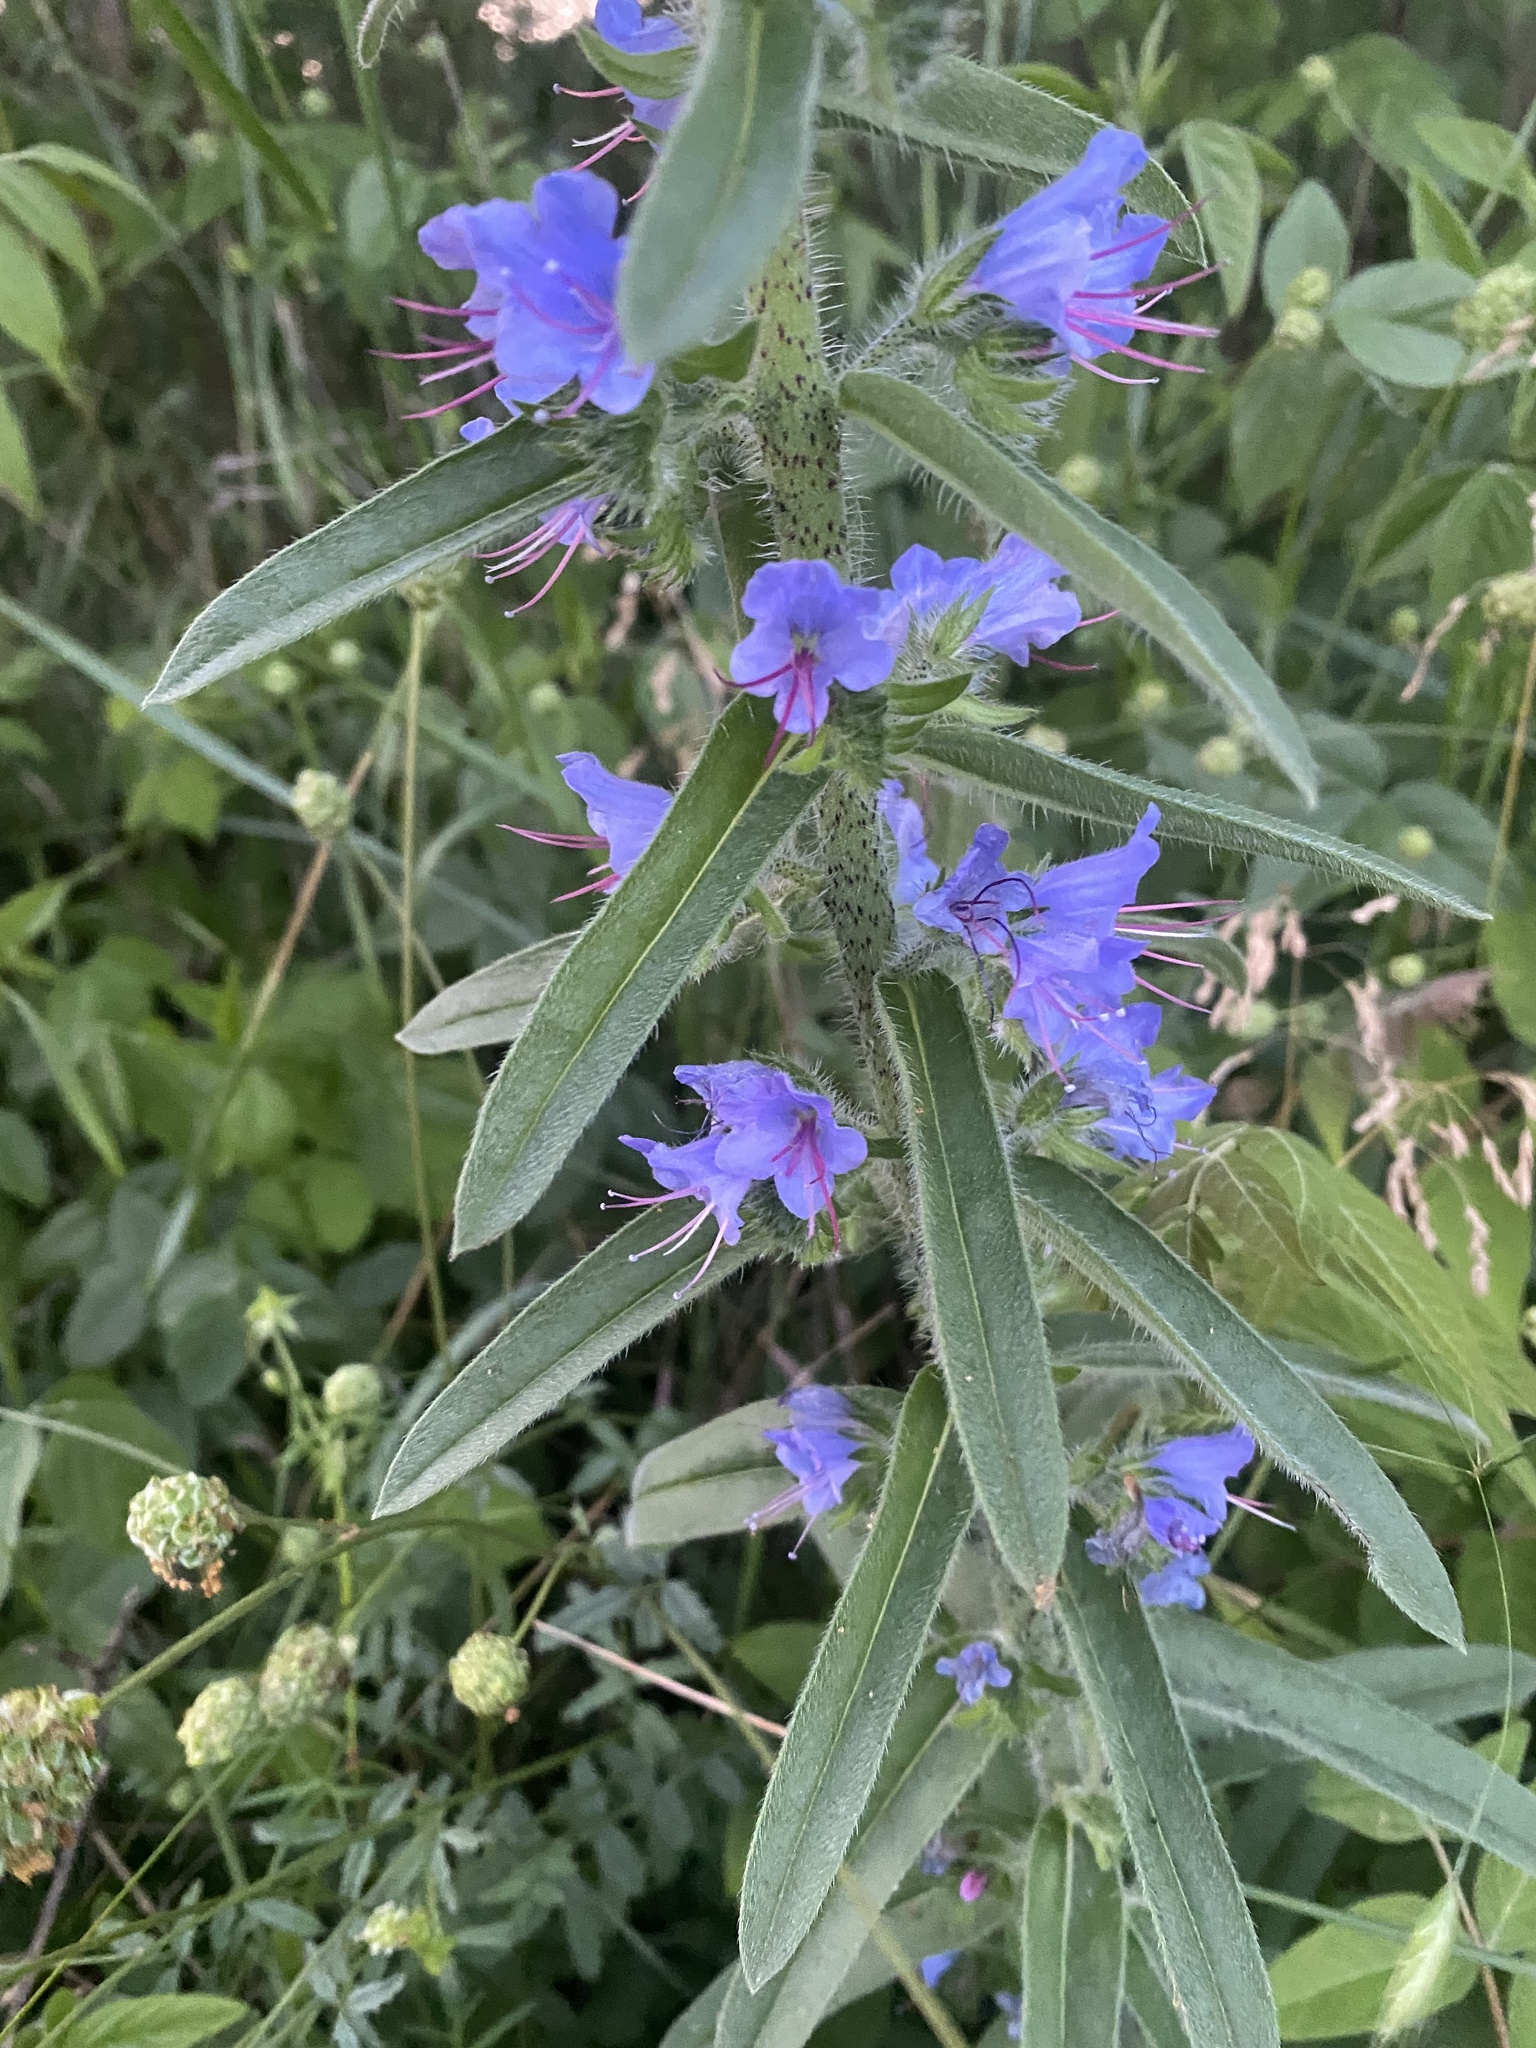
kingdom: Plantae
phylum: Tracheophyta
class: Magnoliopsida
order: Boraginales
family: Boraginaceae
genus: Echium
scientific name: Echium vulgare
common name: Common viper's bugloss
